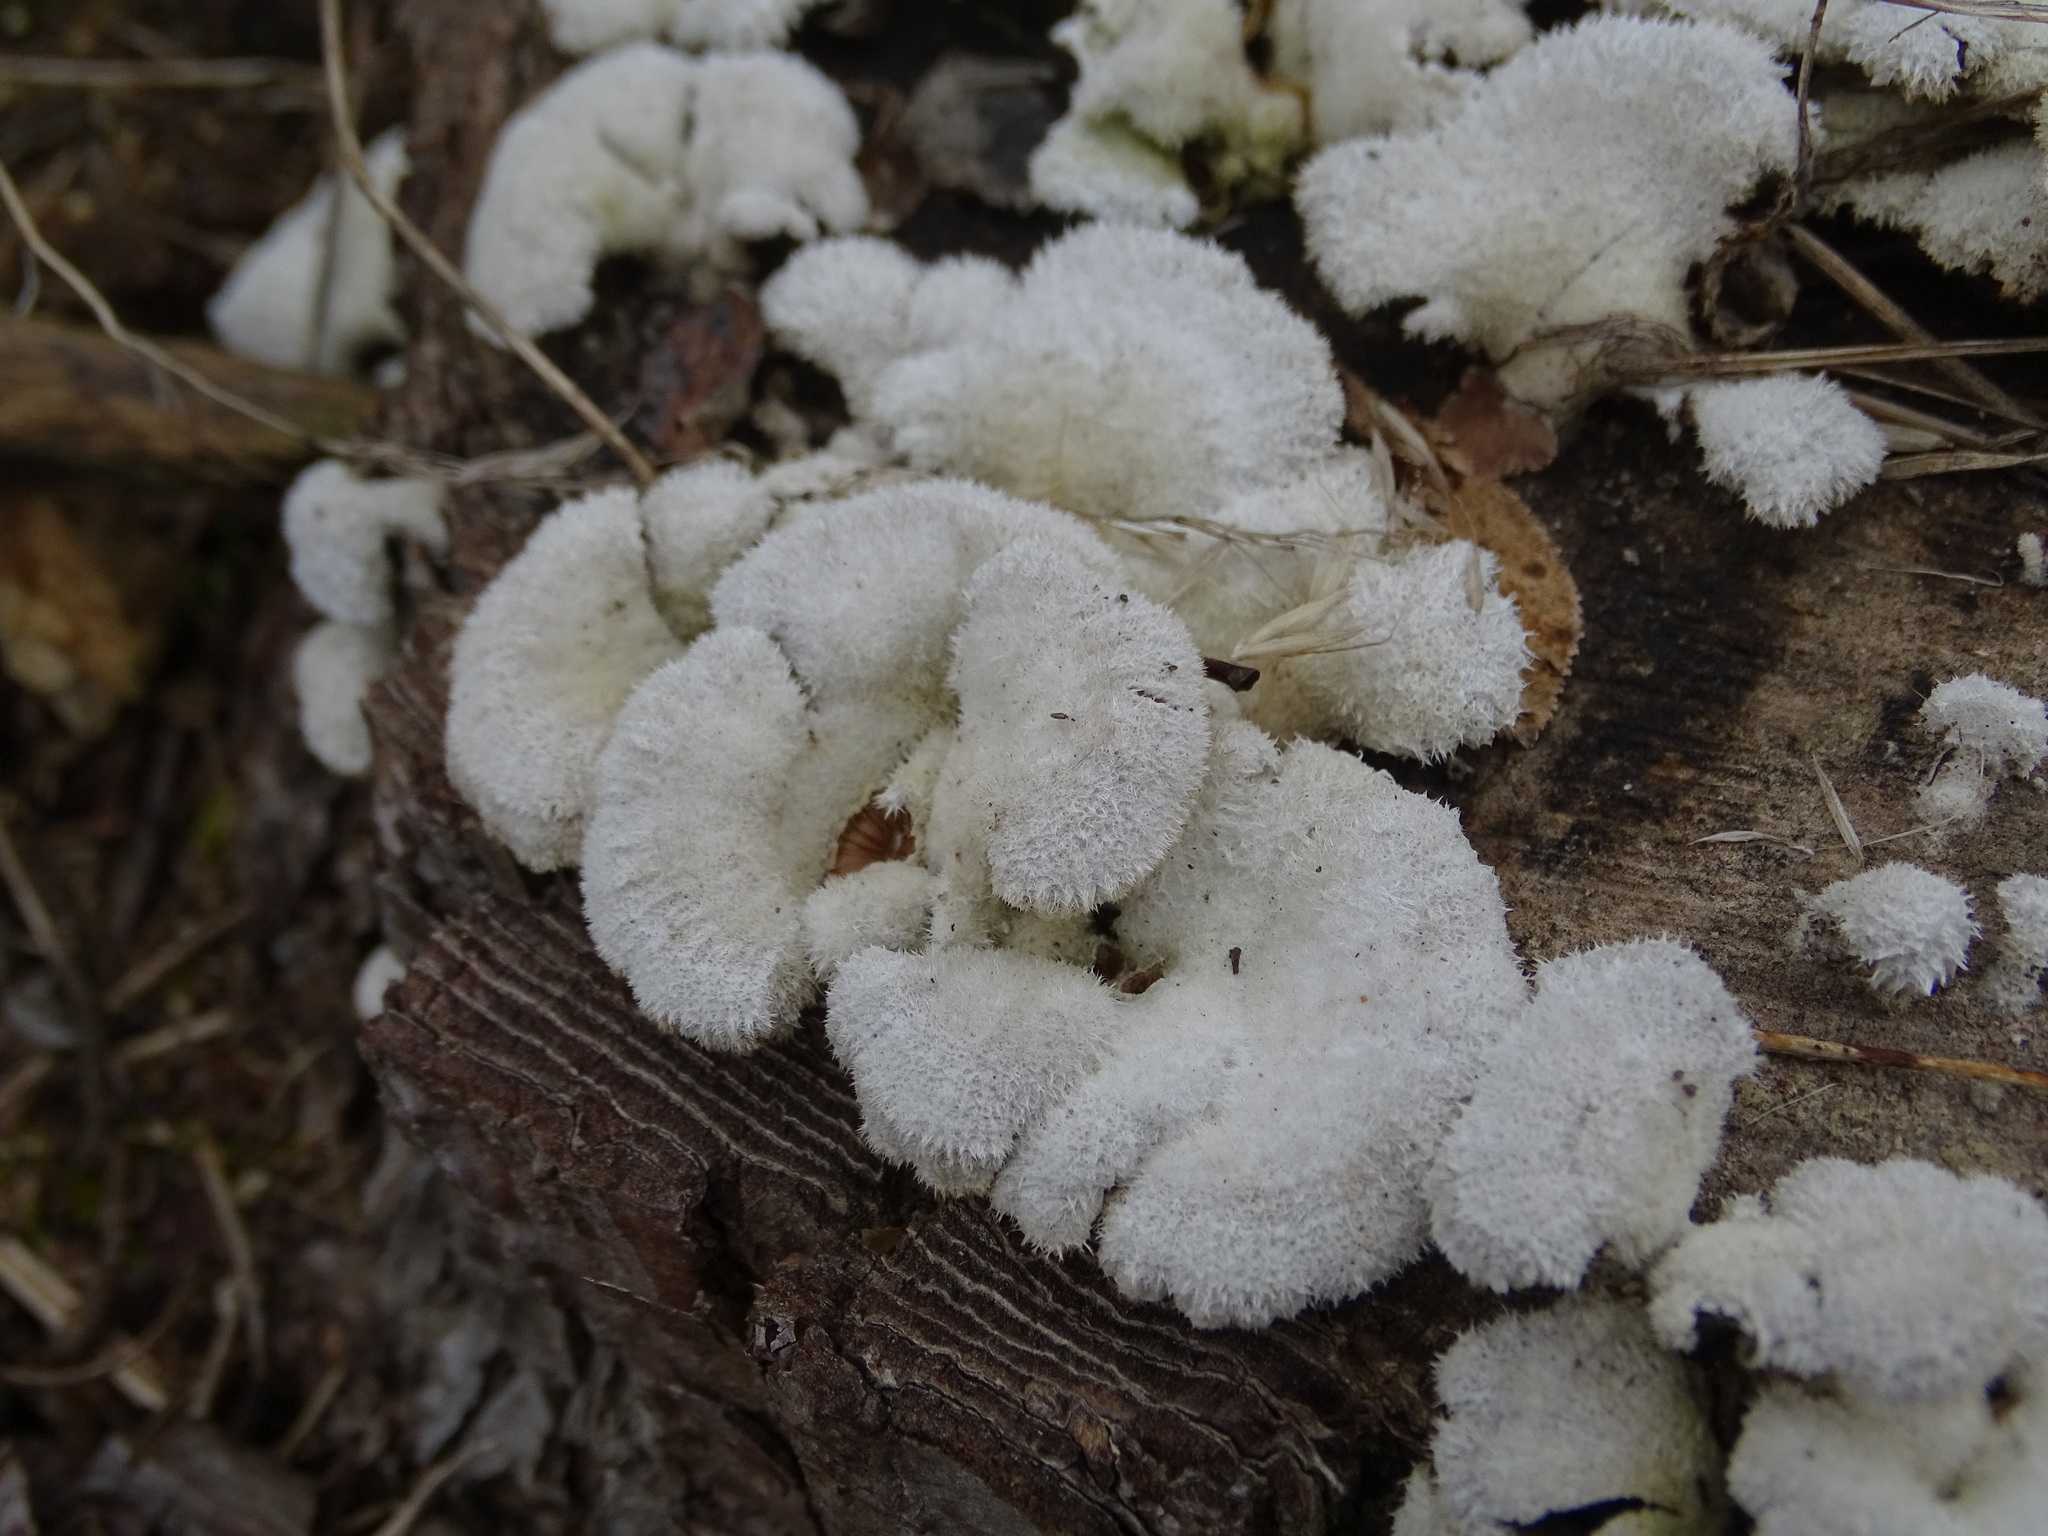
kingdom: Fungi
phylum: Basidiomycota
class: Agaricomycetes
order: Agaricales
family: Schizophyllaceae
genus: Schizophyllum
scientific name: Schizophyllum commune
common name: Common porecrust
